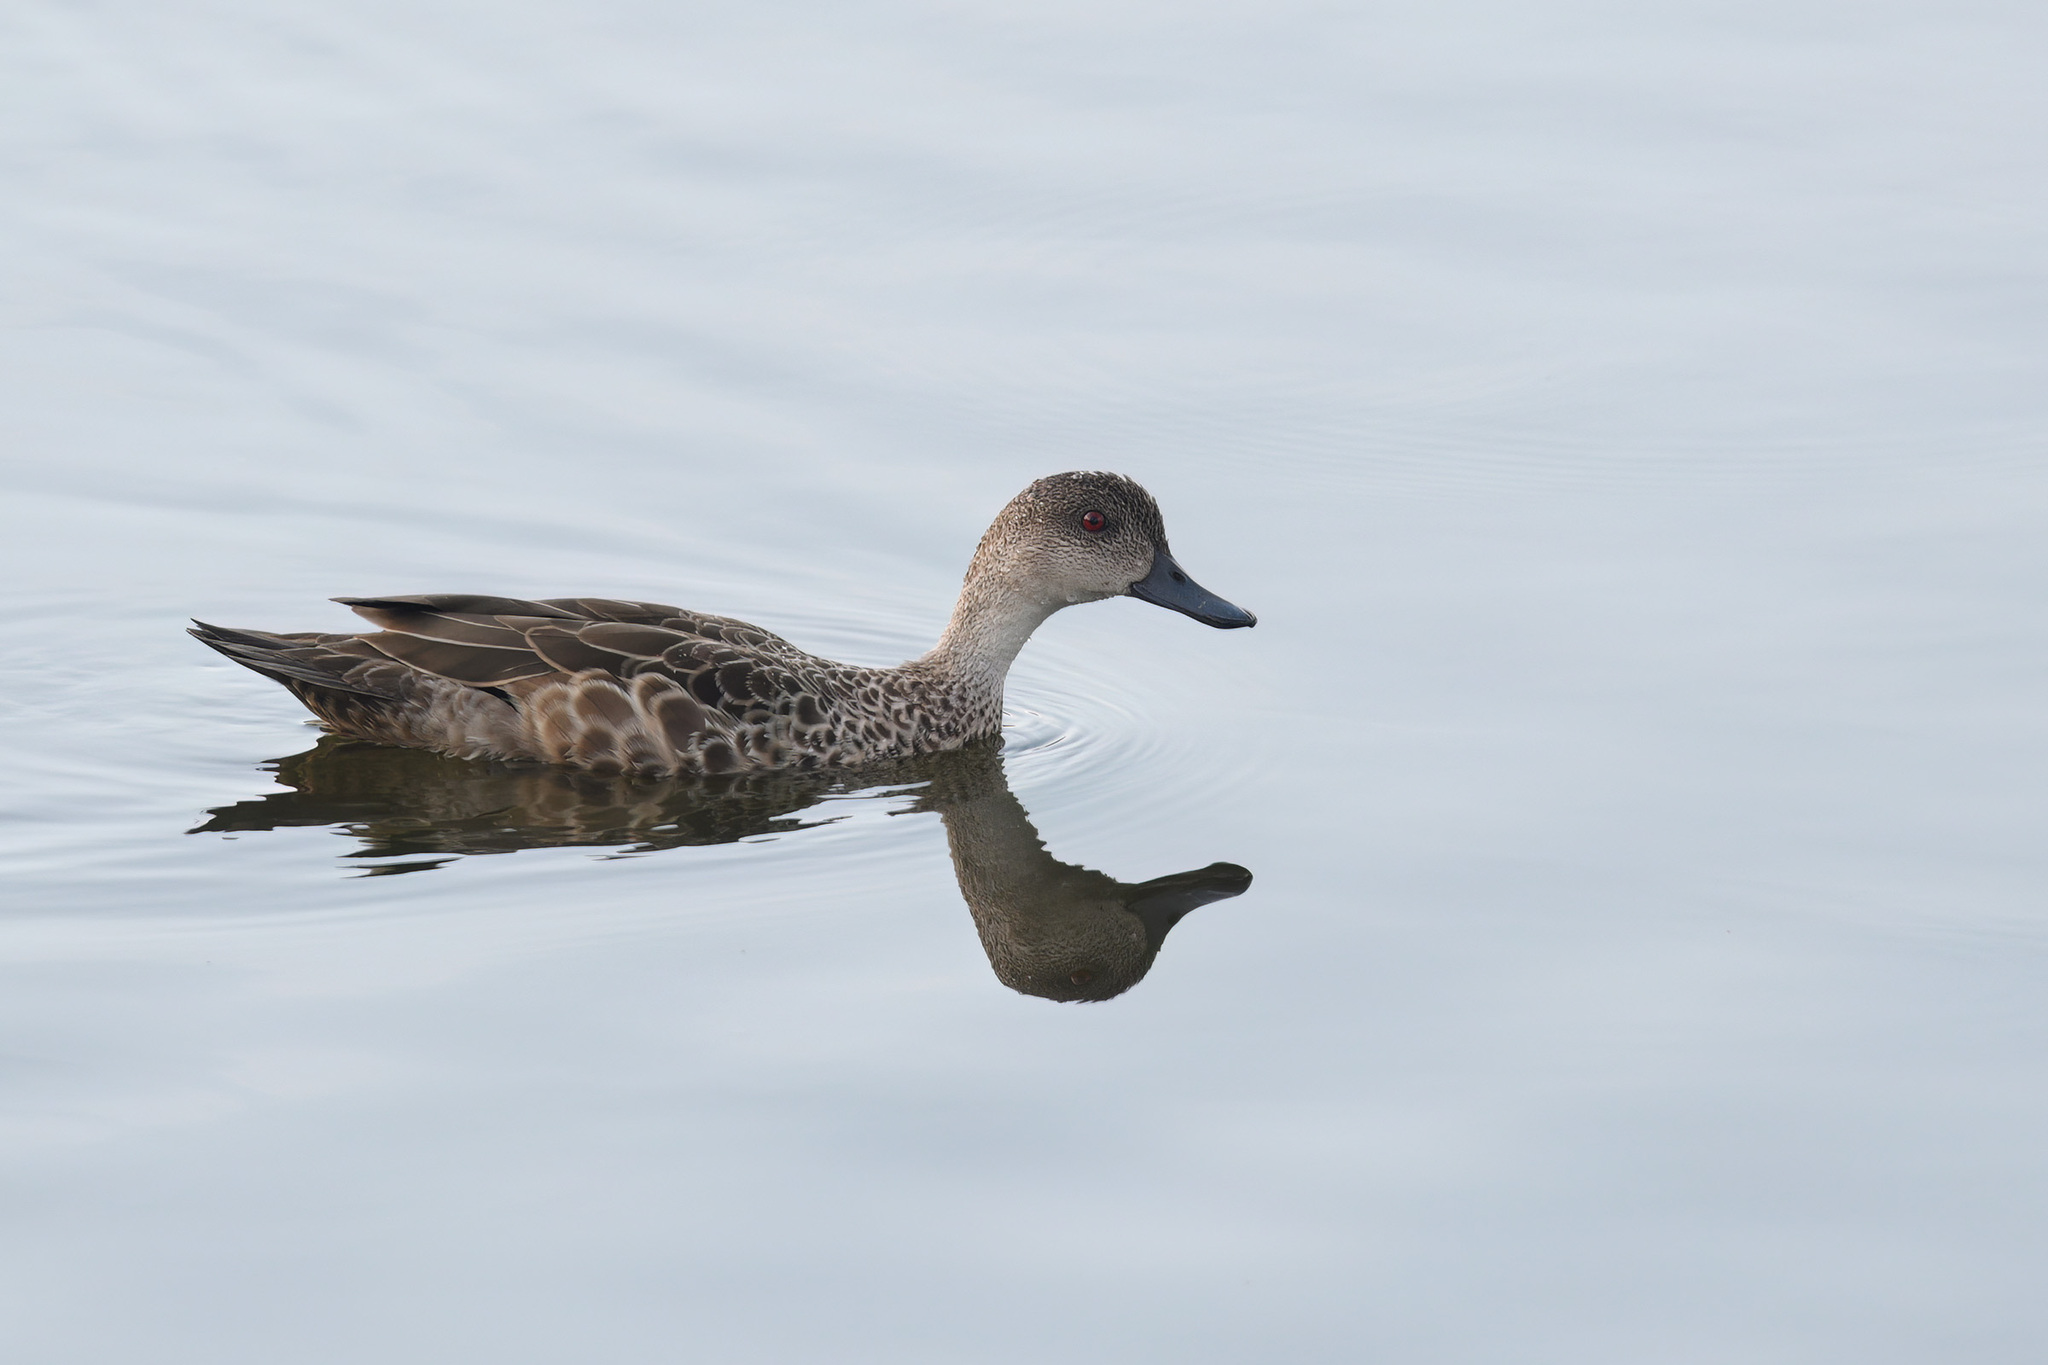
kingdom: Animalia
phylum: Chordata
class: Aves
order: Anseriformes
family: Anatidae
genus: Anas
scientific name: Anas gracilis
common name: Grey teal
